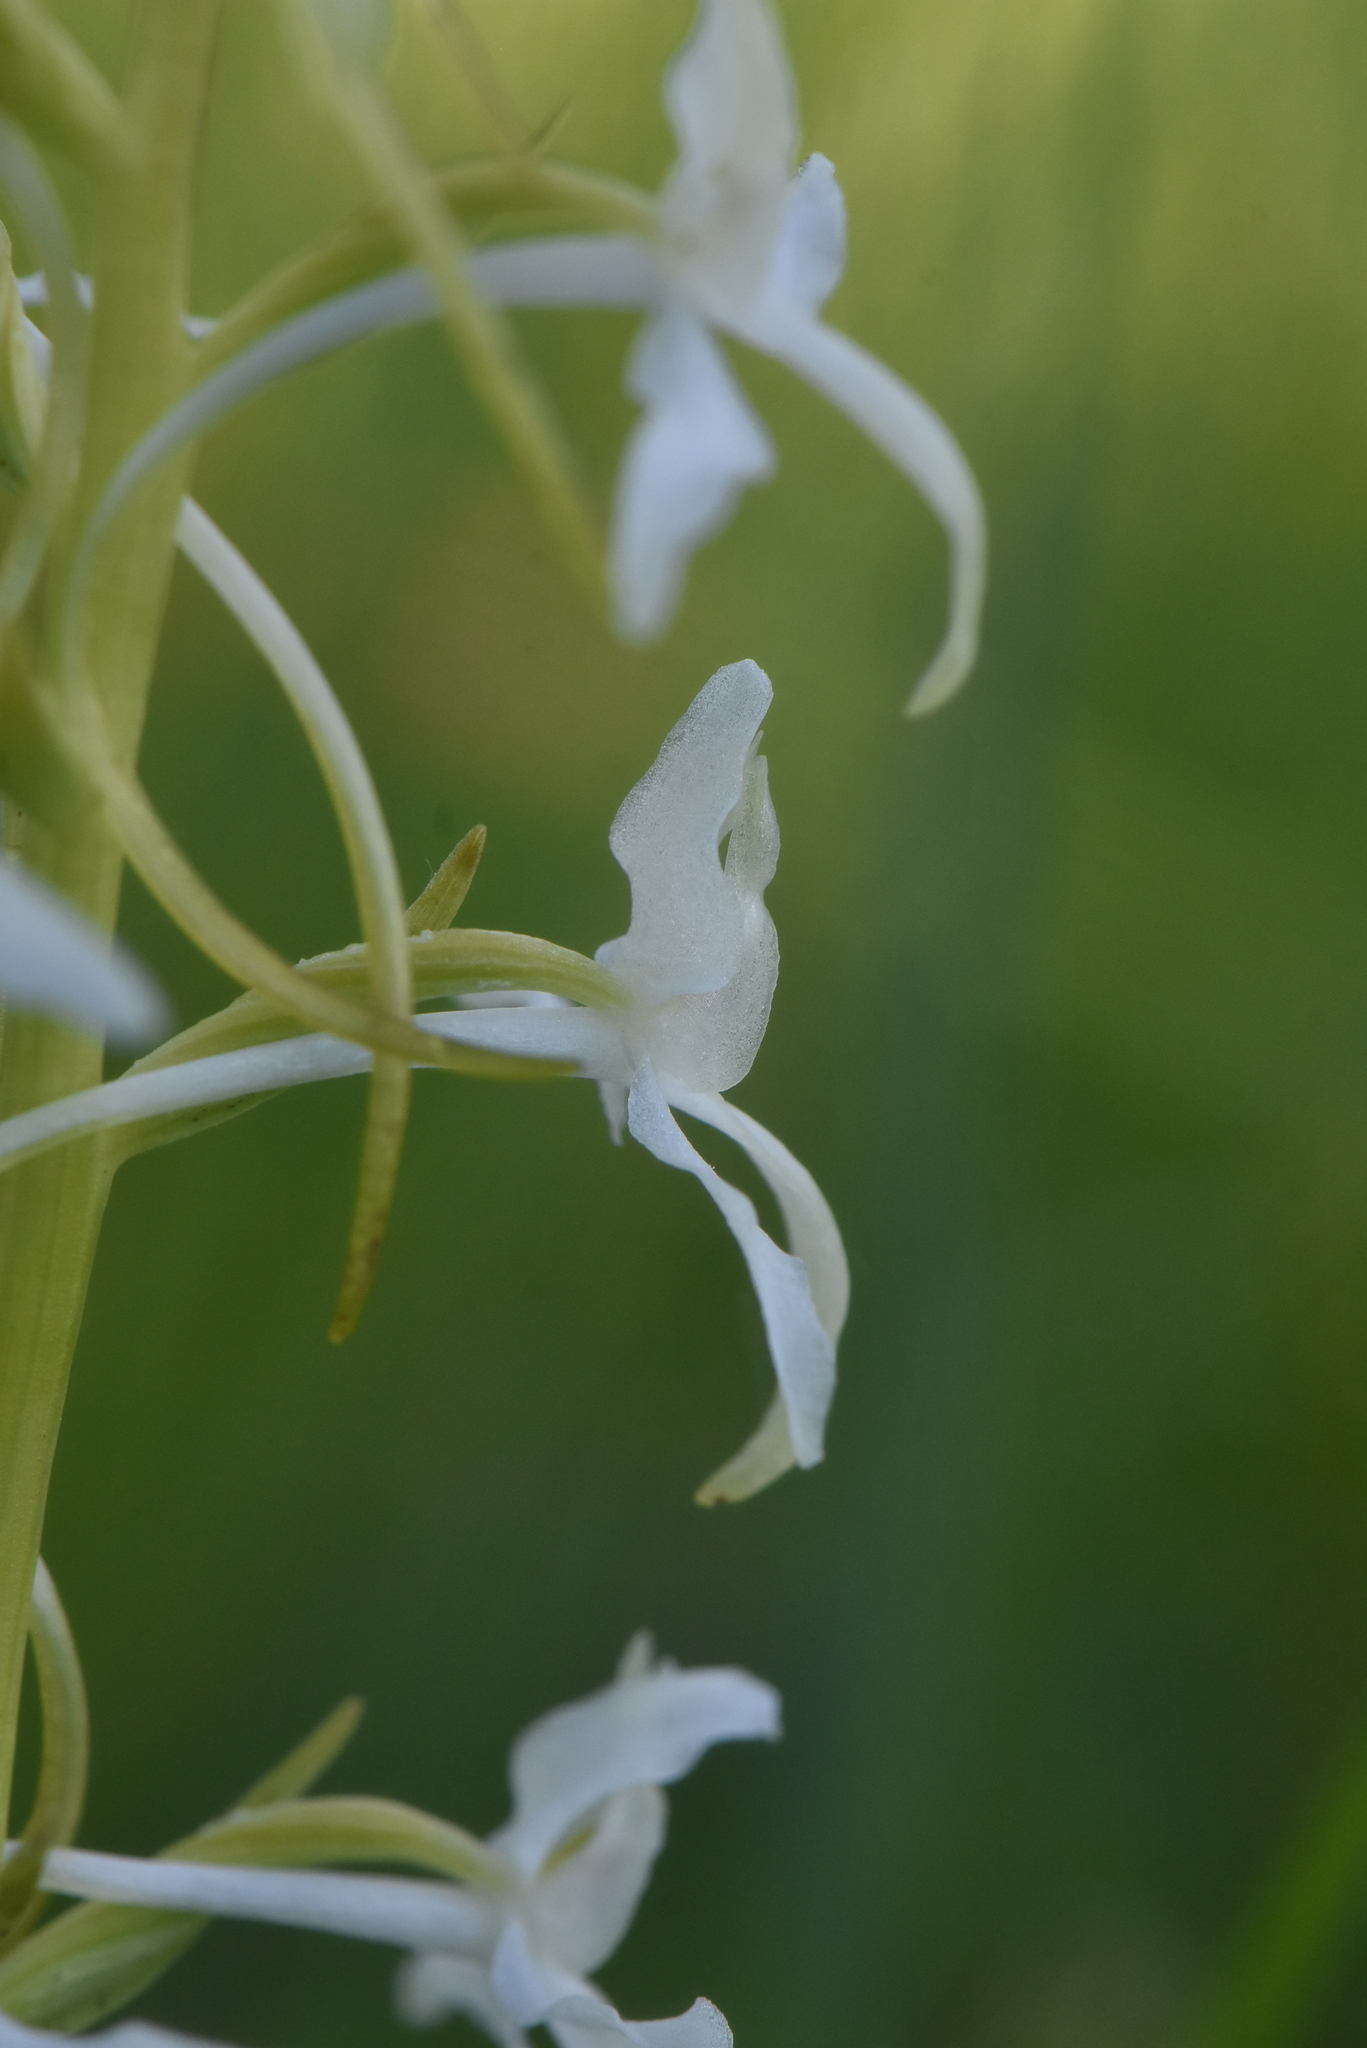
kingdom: Plantae
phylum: Tracheophyta
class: Liliopsida
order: Asparagales
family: Orchidaceae
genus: Platanthera
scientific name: Platanthera bifolia
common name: Lesser butterfly-orchid
